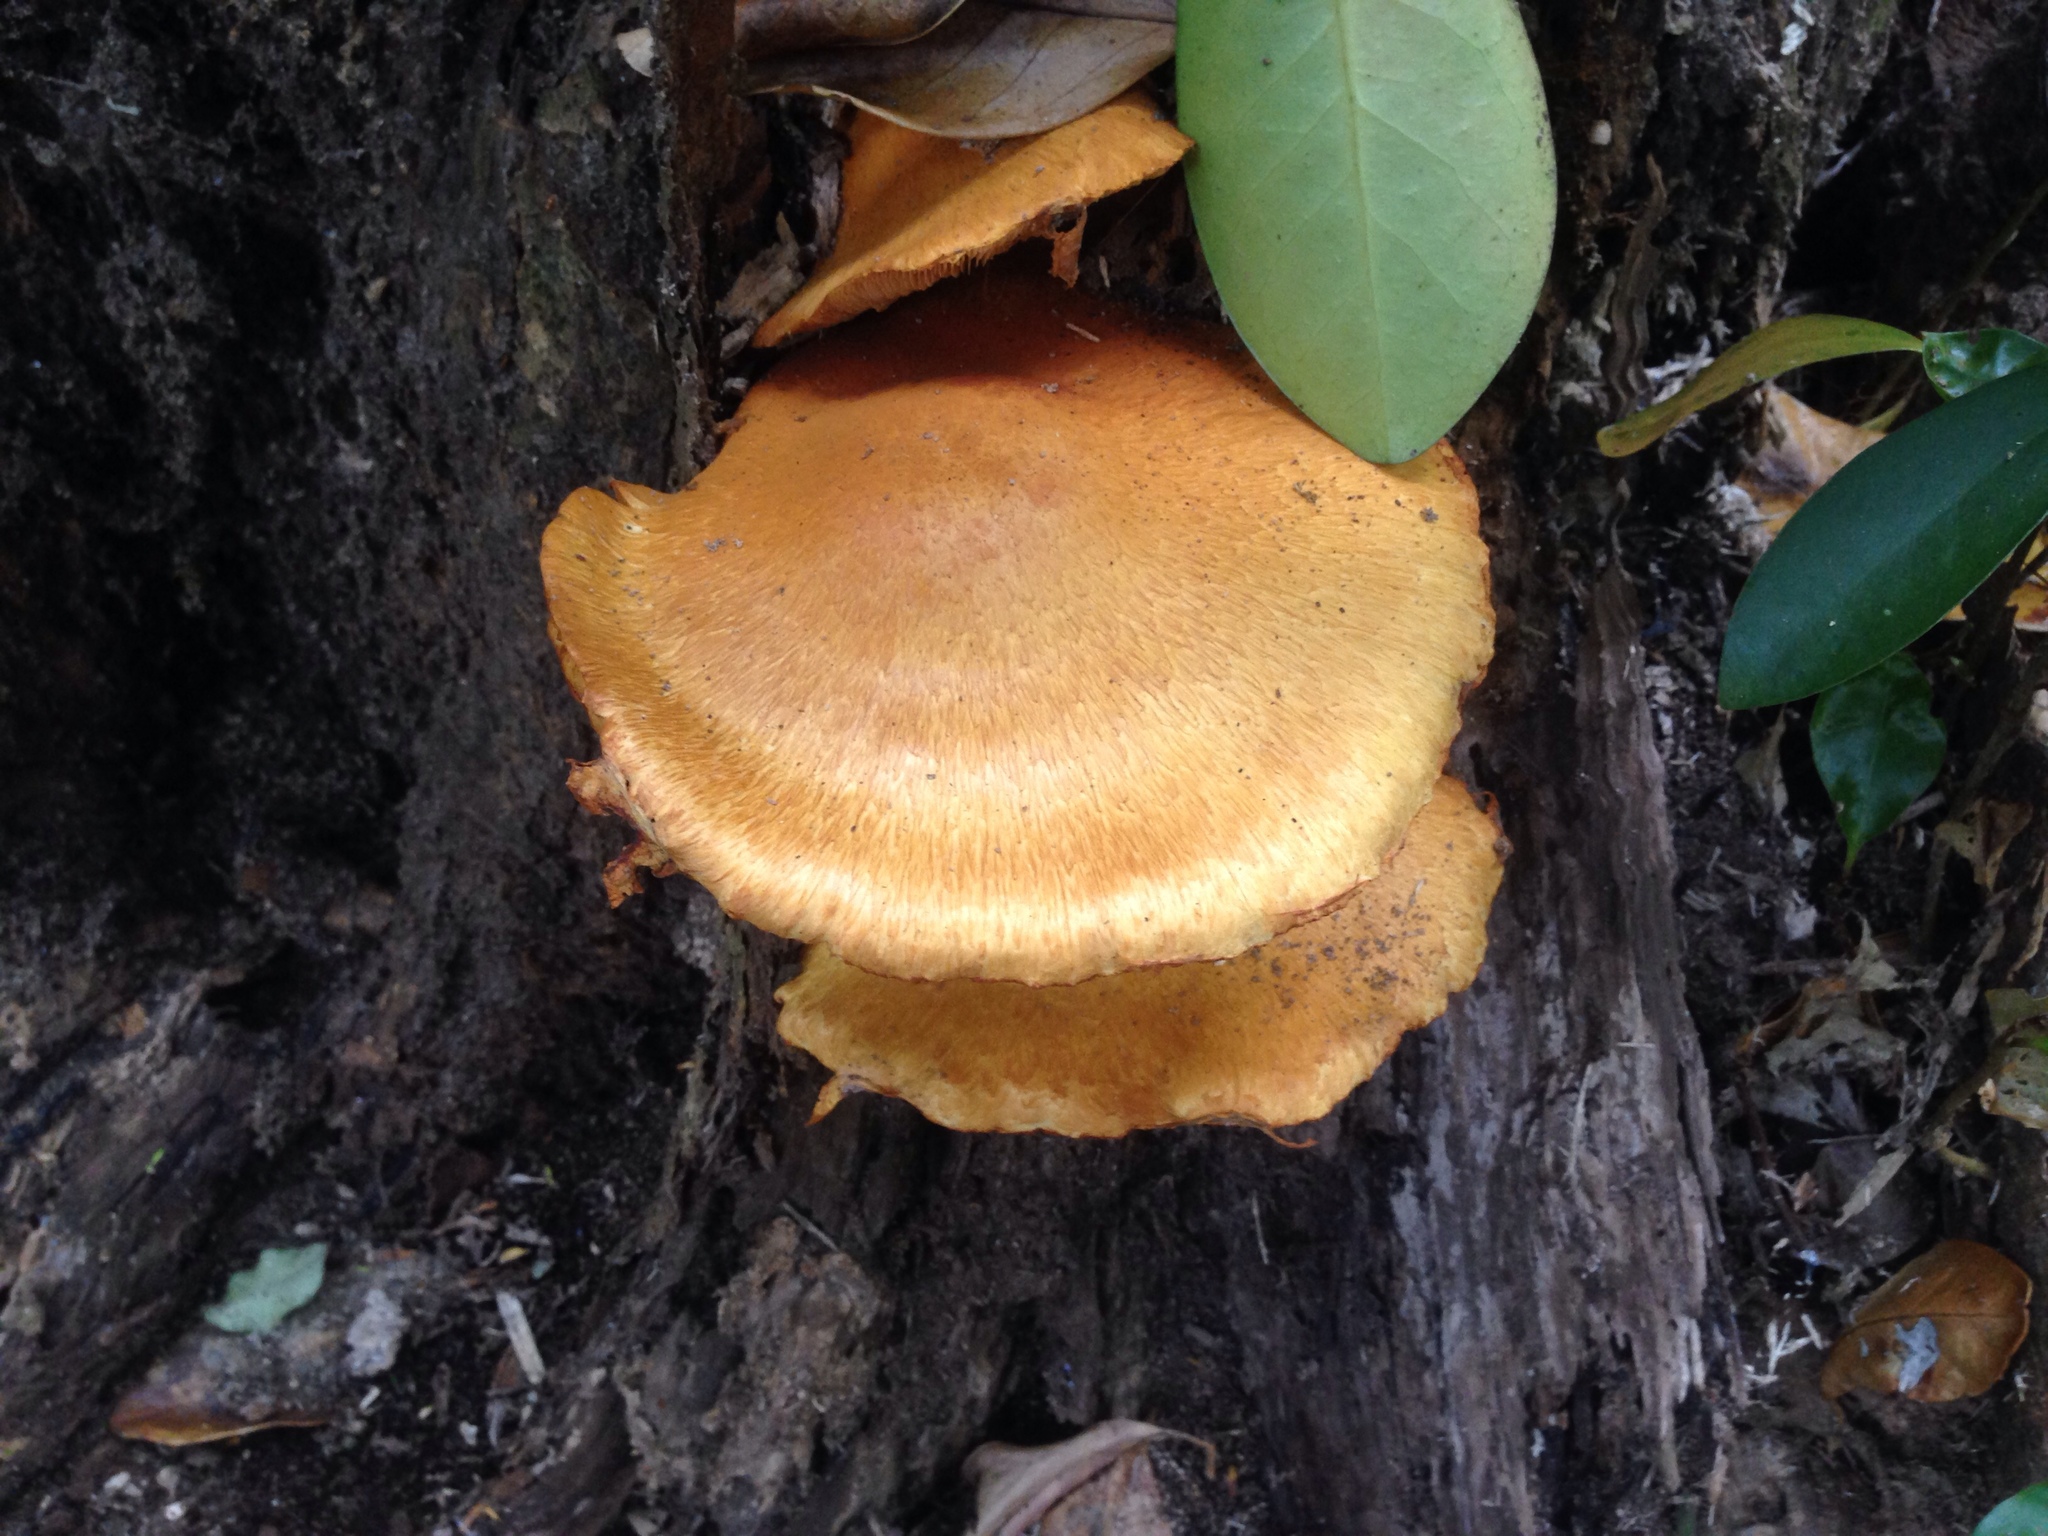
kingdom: Fungi
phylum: Basidiomycota
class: Agaricomycetes
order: Agaricales
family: Hymenogastraceae
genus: Gymnopilus
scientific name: Gymnopilus junonius
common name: Spectacular rustgill
